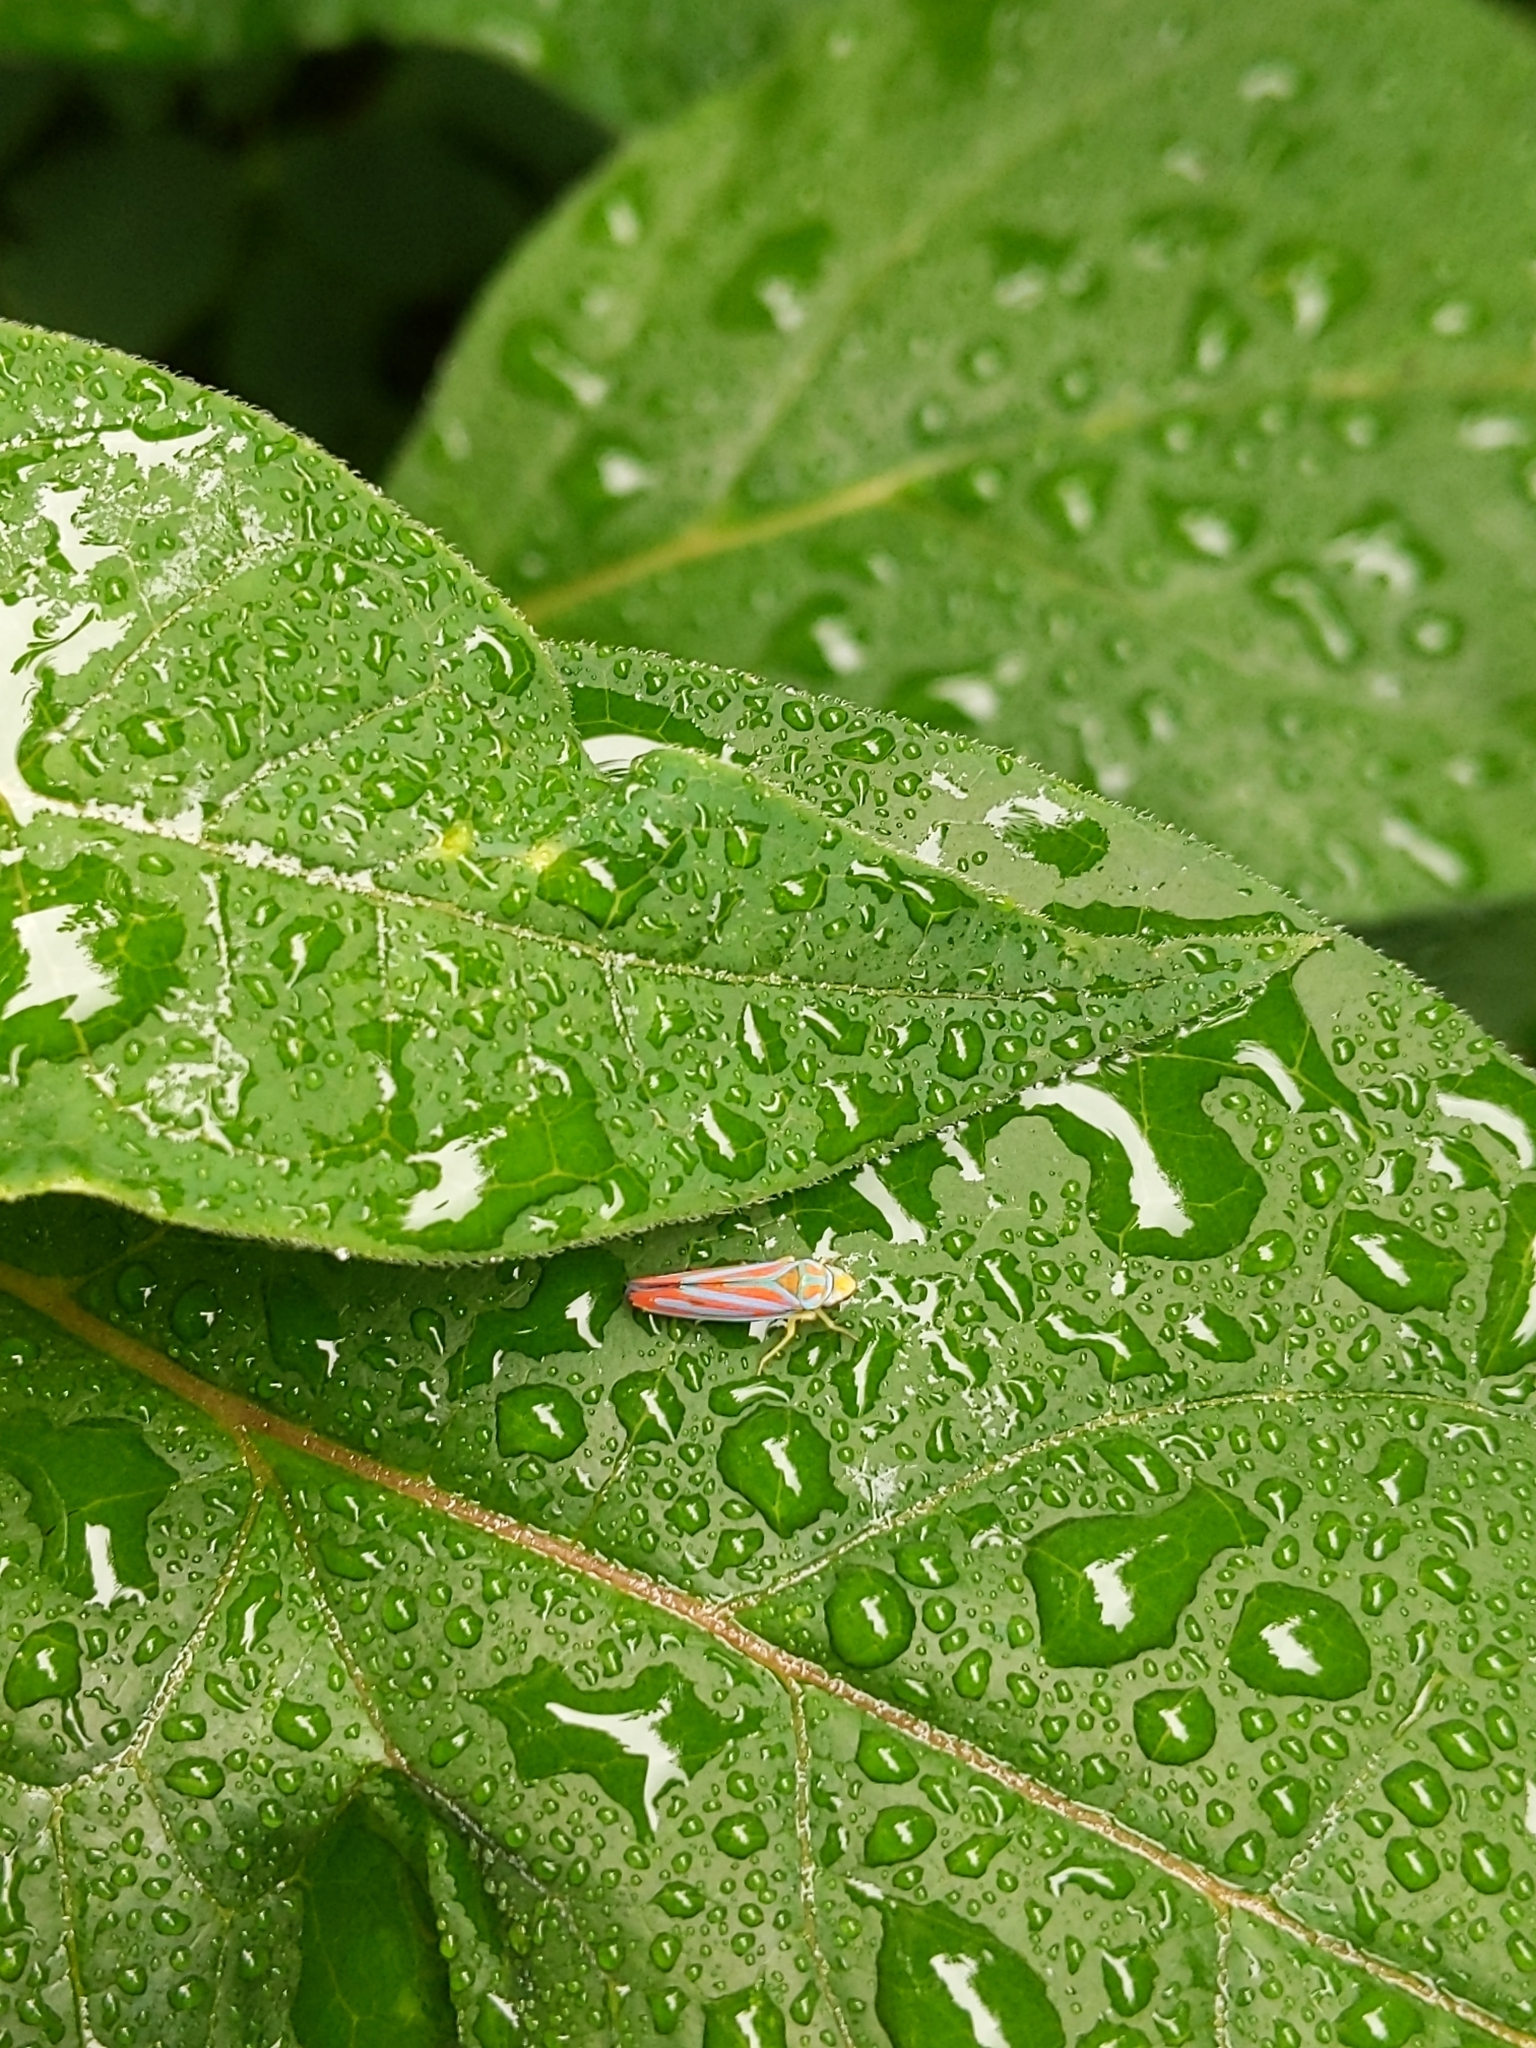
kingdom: Animalia
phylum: Arthropoda
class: Insecta
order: Hemiptera
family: Cicadellidae
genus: Graphocephala
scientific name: Graphocephala coccinea
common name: Candy-striped leafhopper
